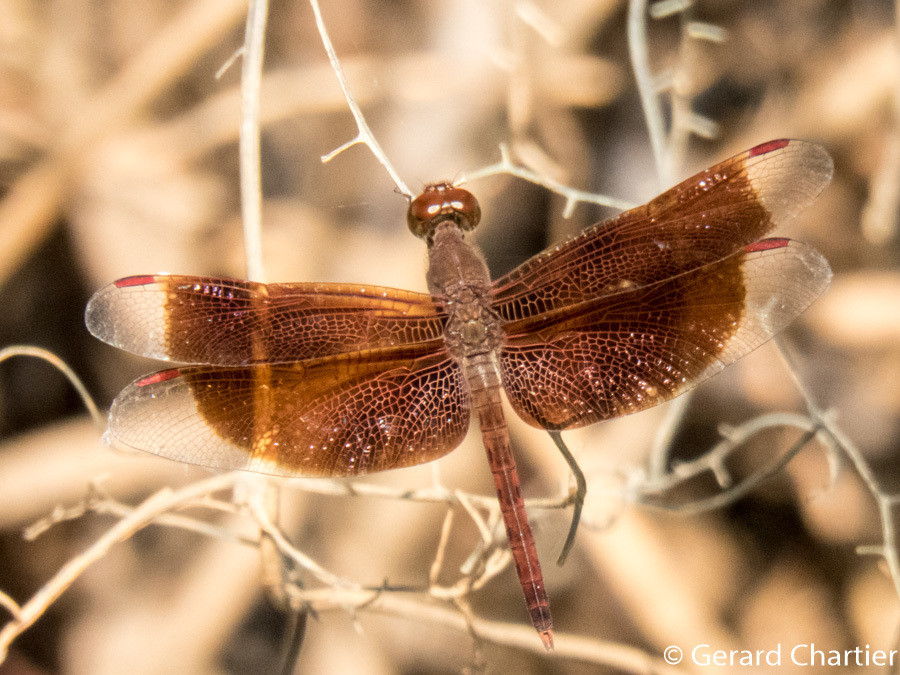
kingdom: Animalia
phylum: Arthropoda
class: Insecta
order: Odonata
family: Libellulidae
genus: Neurothemis
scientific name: Neurothemis fluctuans
